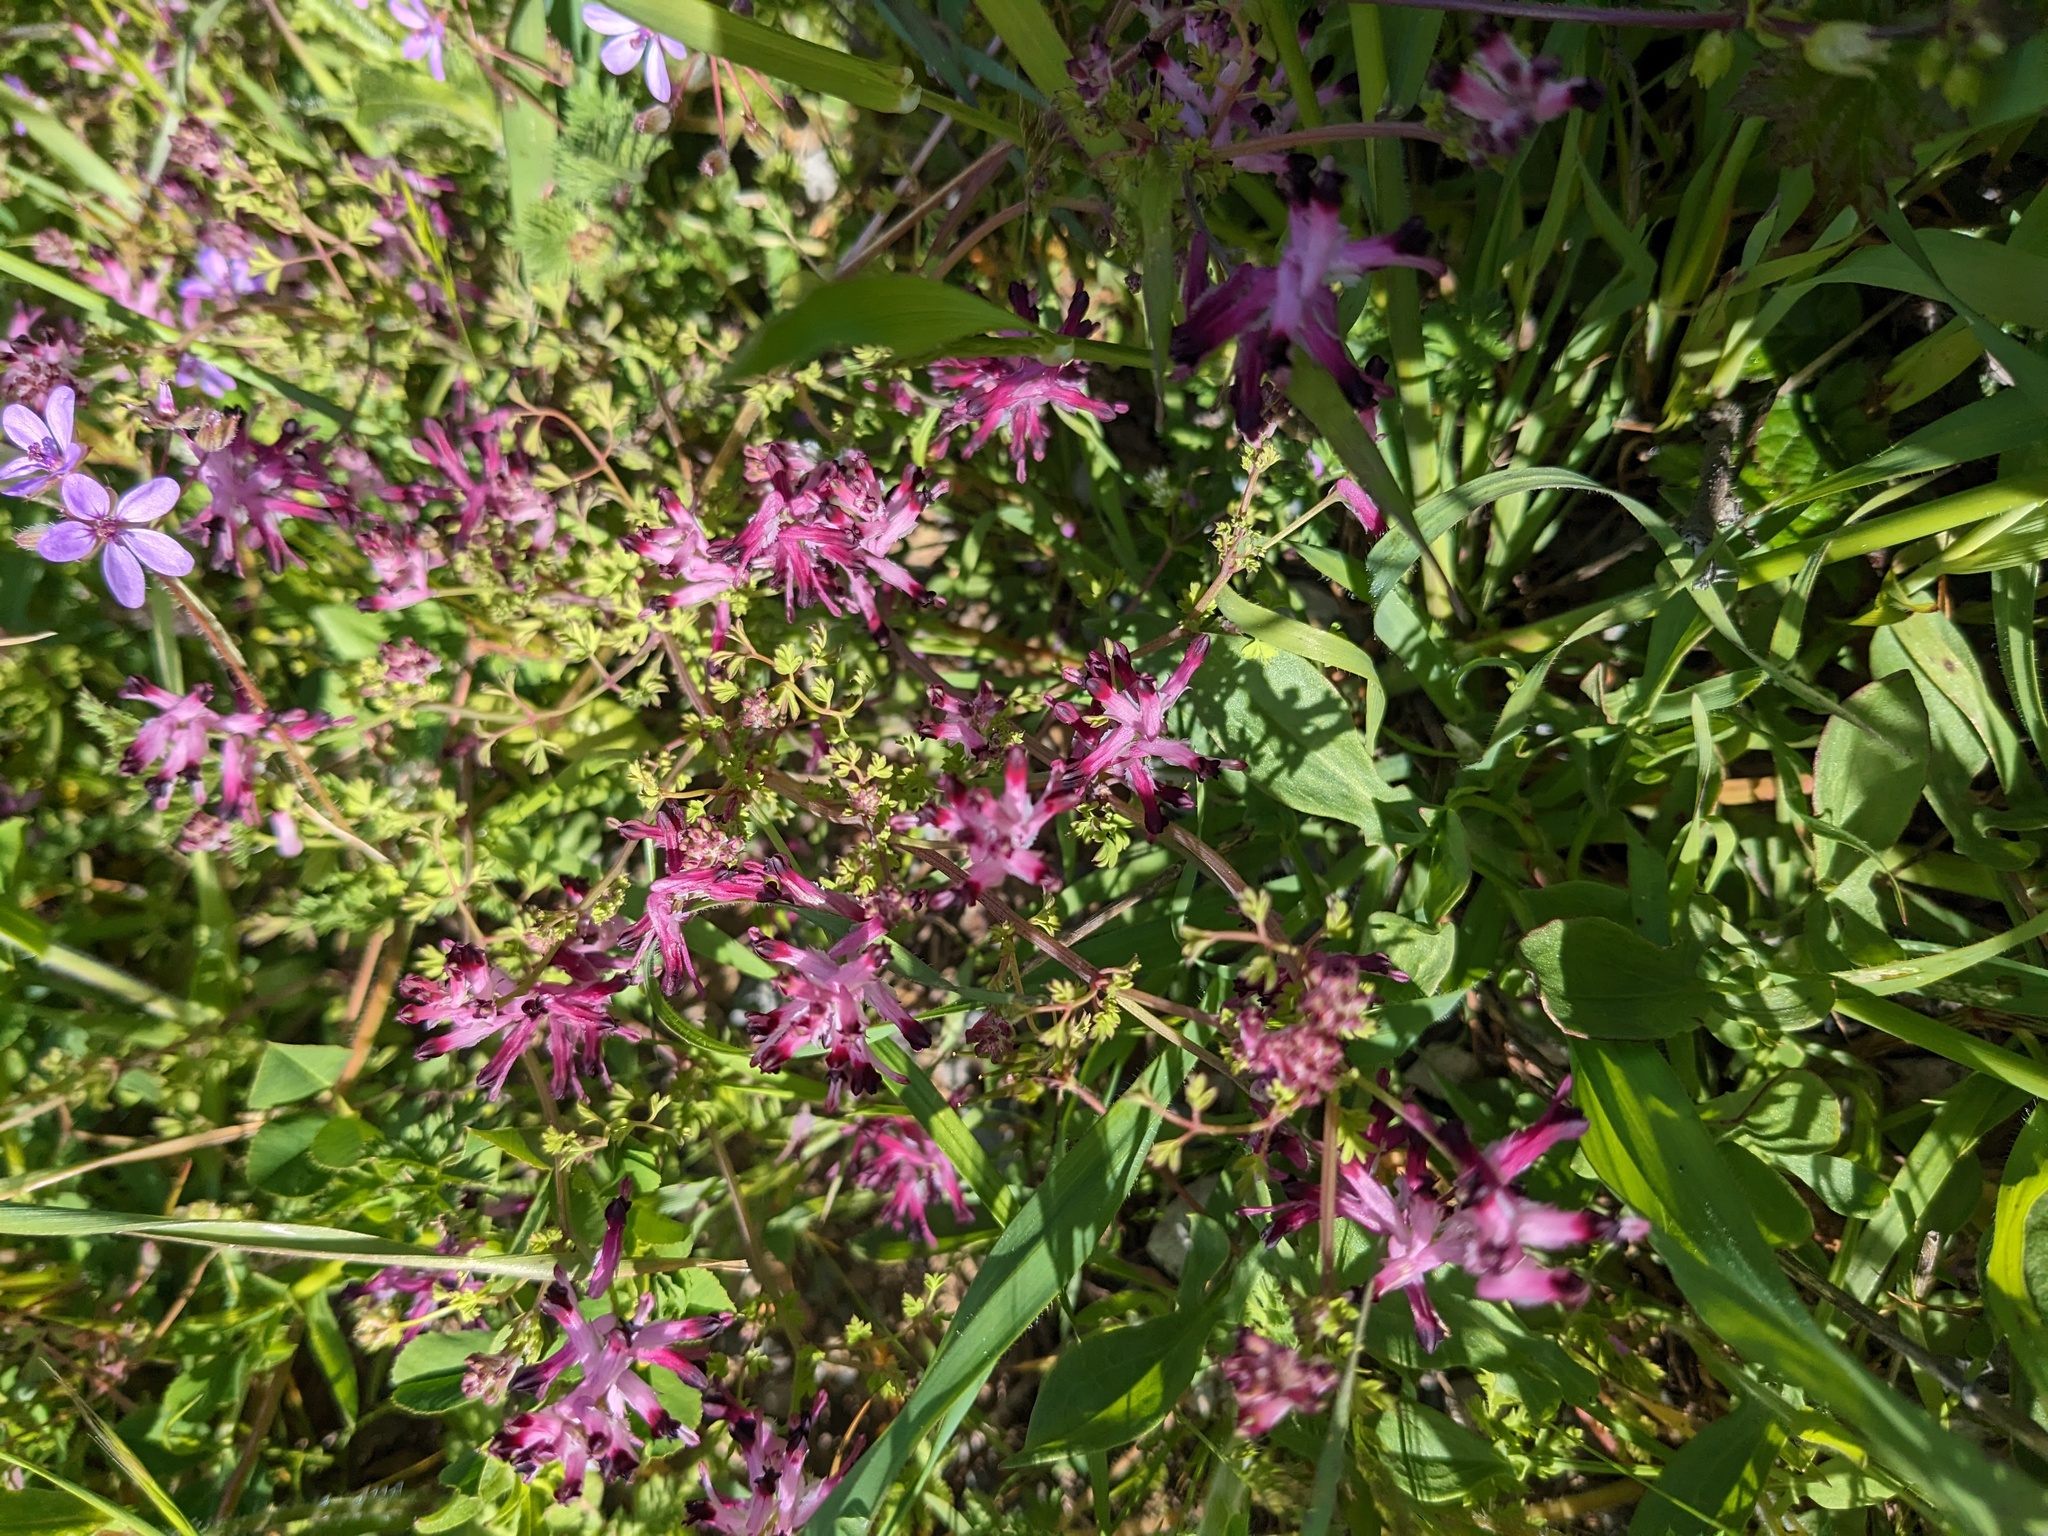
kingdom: Plantae
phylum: Tracheophyta
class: Magnoliopsida
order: Ranunculales
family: Papaveraceae
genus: Fumaria
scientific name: Fumaria muralis
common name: Common ramping-fumitory
